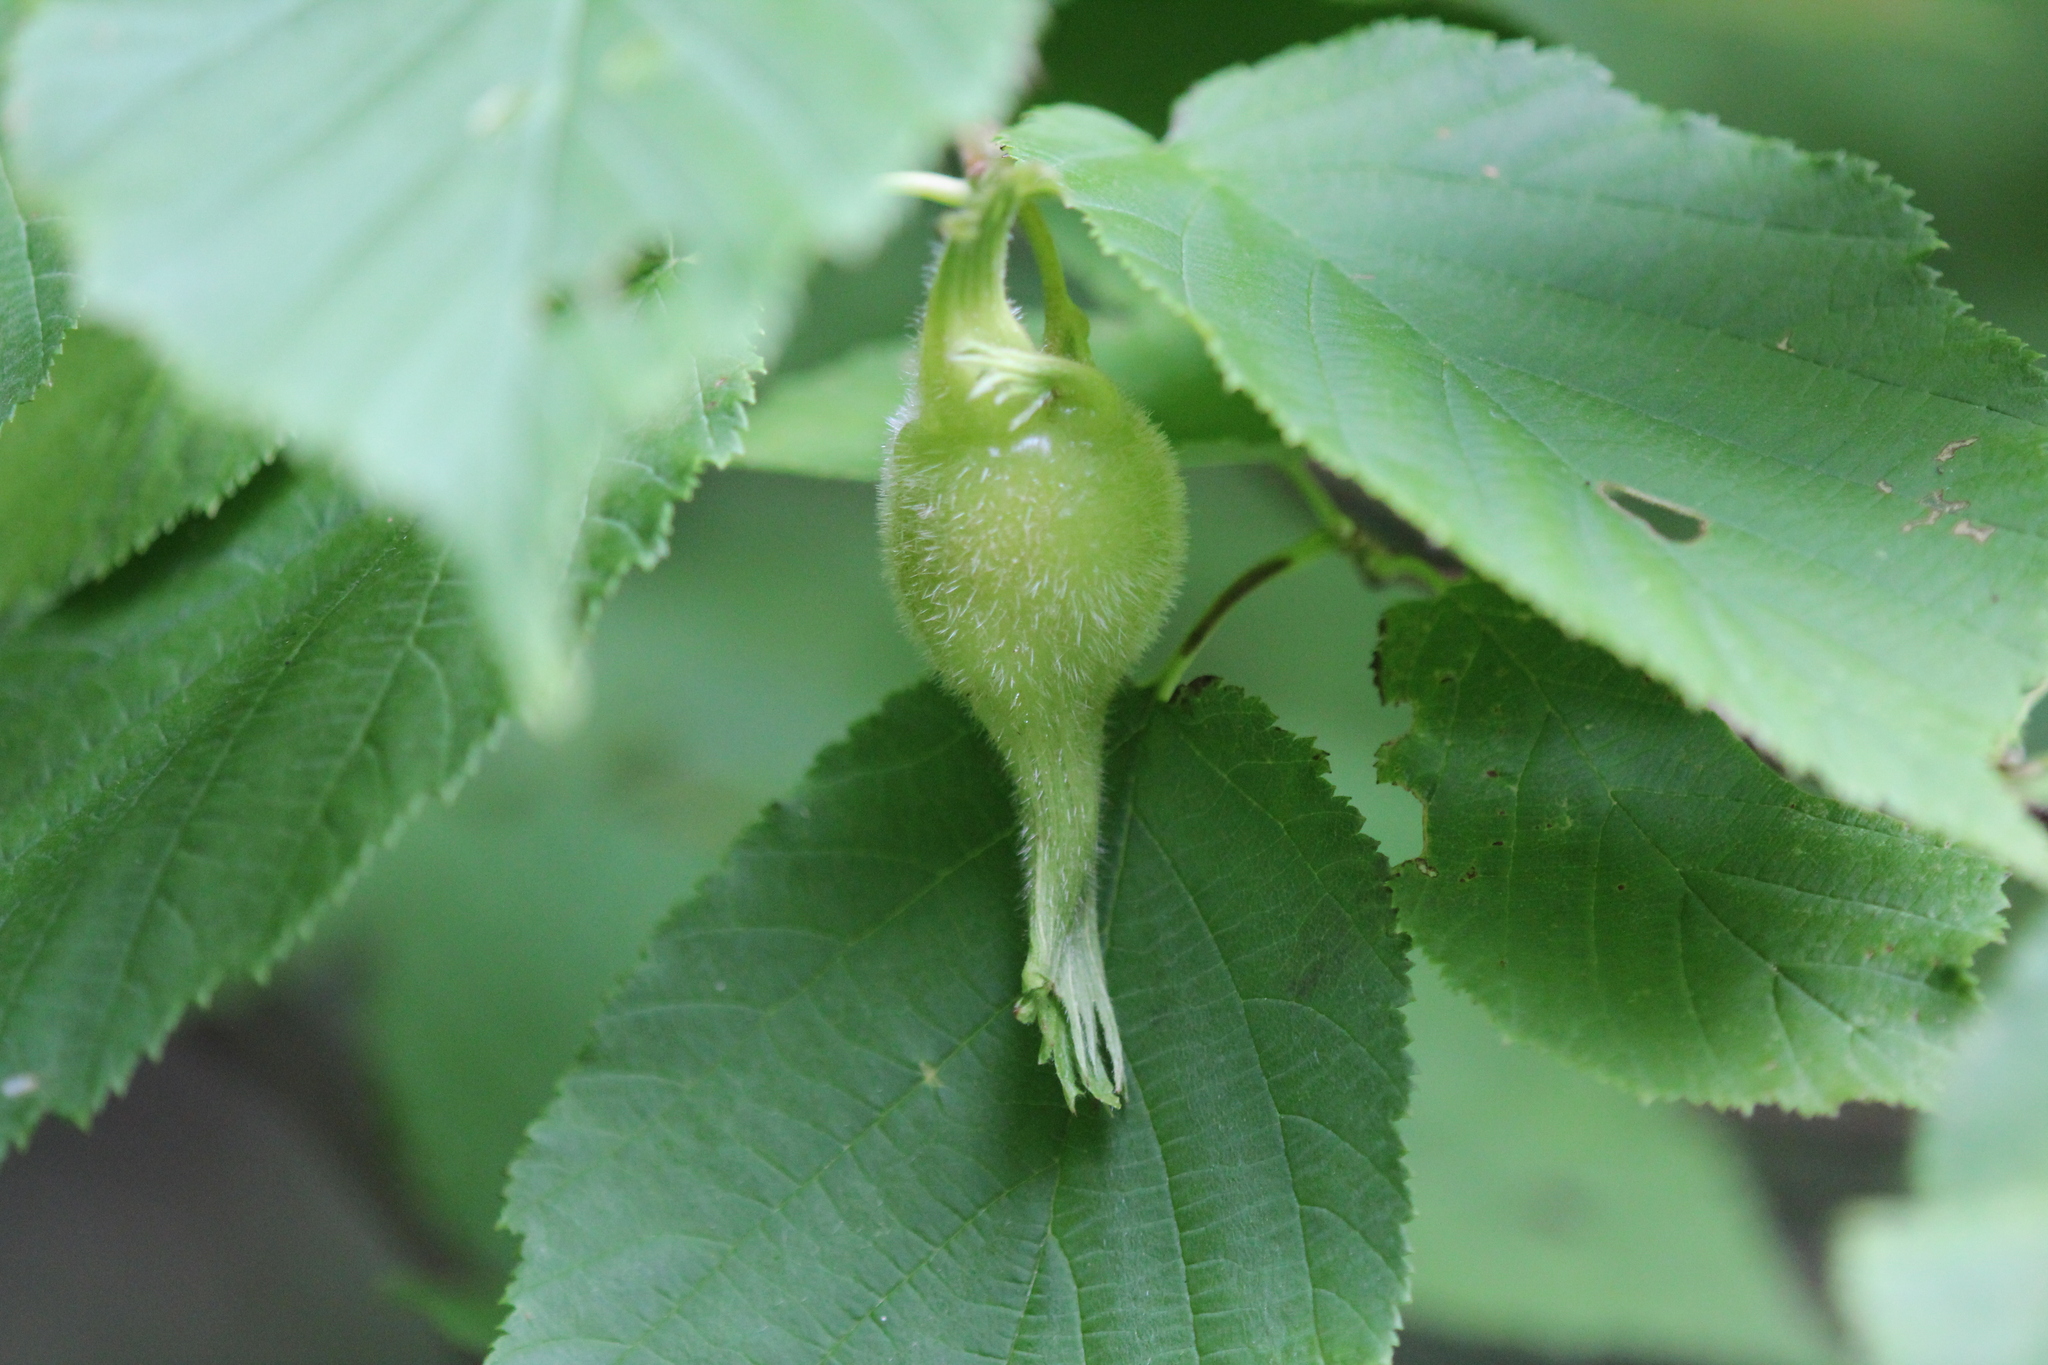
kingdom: Plantae
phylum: Tracheophyta
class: Magnoliopsida
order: Fagales
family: Betulaceae
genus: Corylus
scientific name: Corylus cornuta
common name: Beaked hazel
